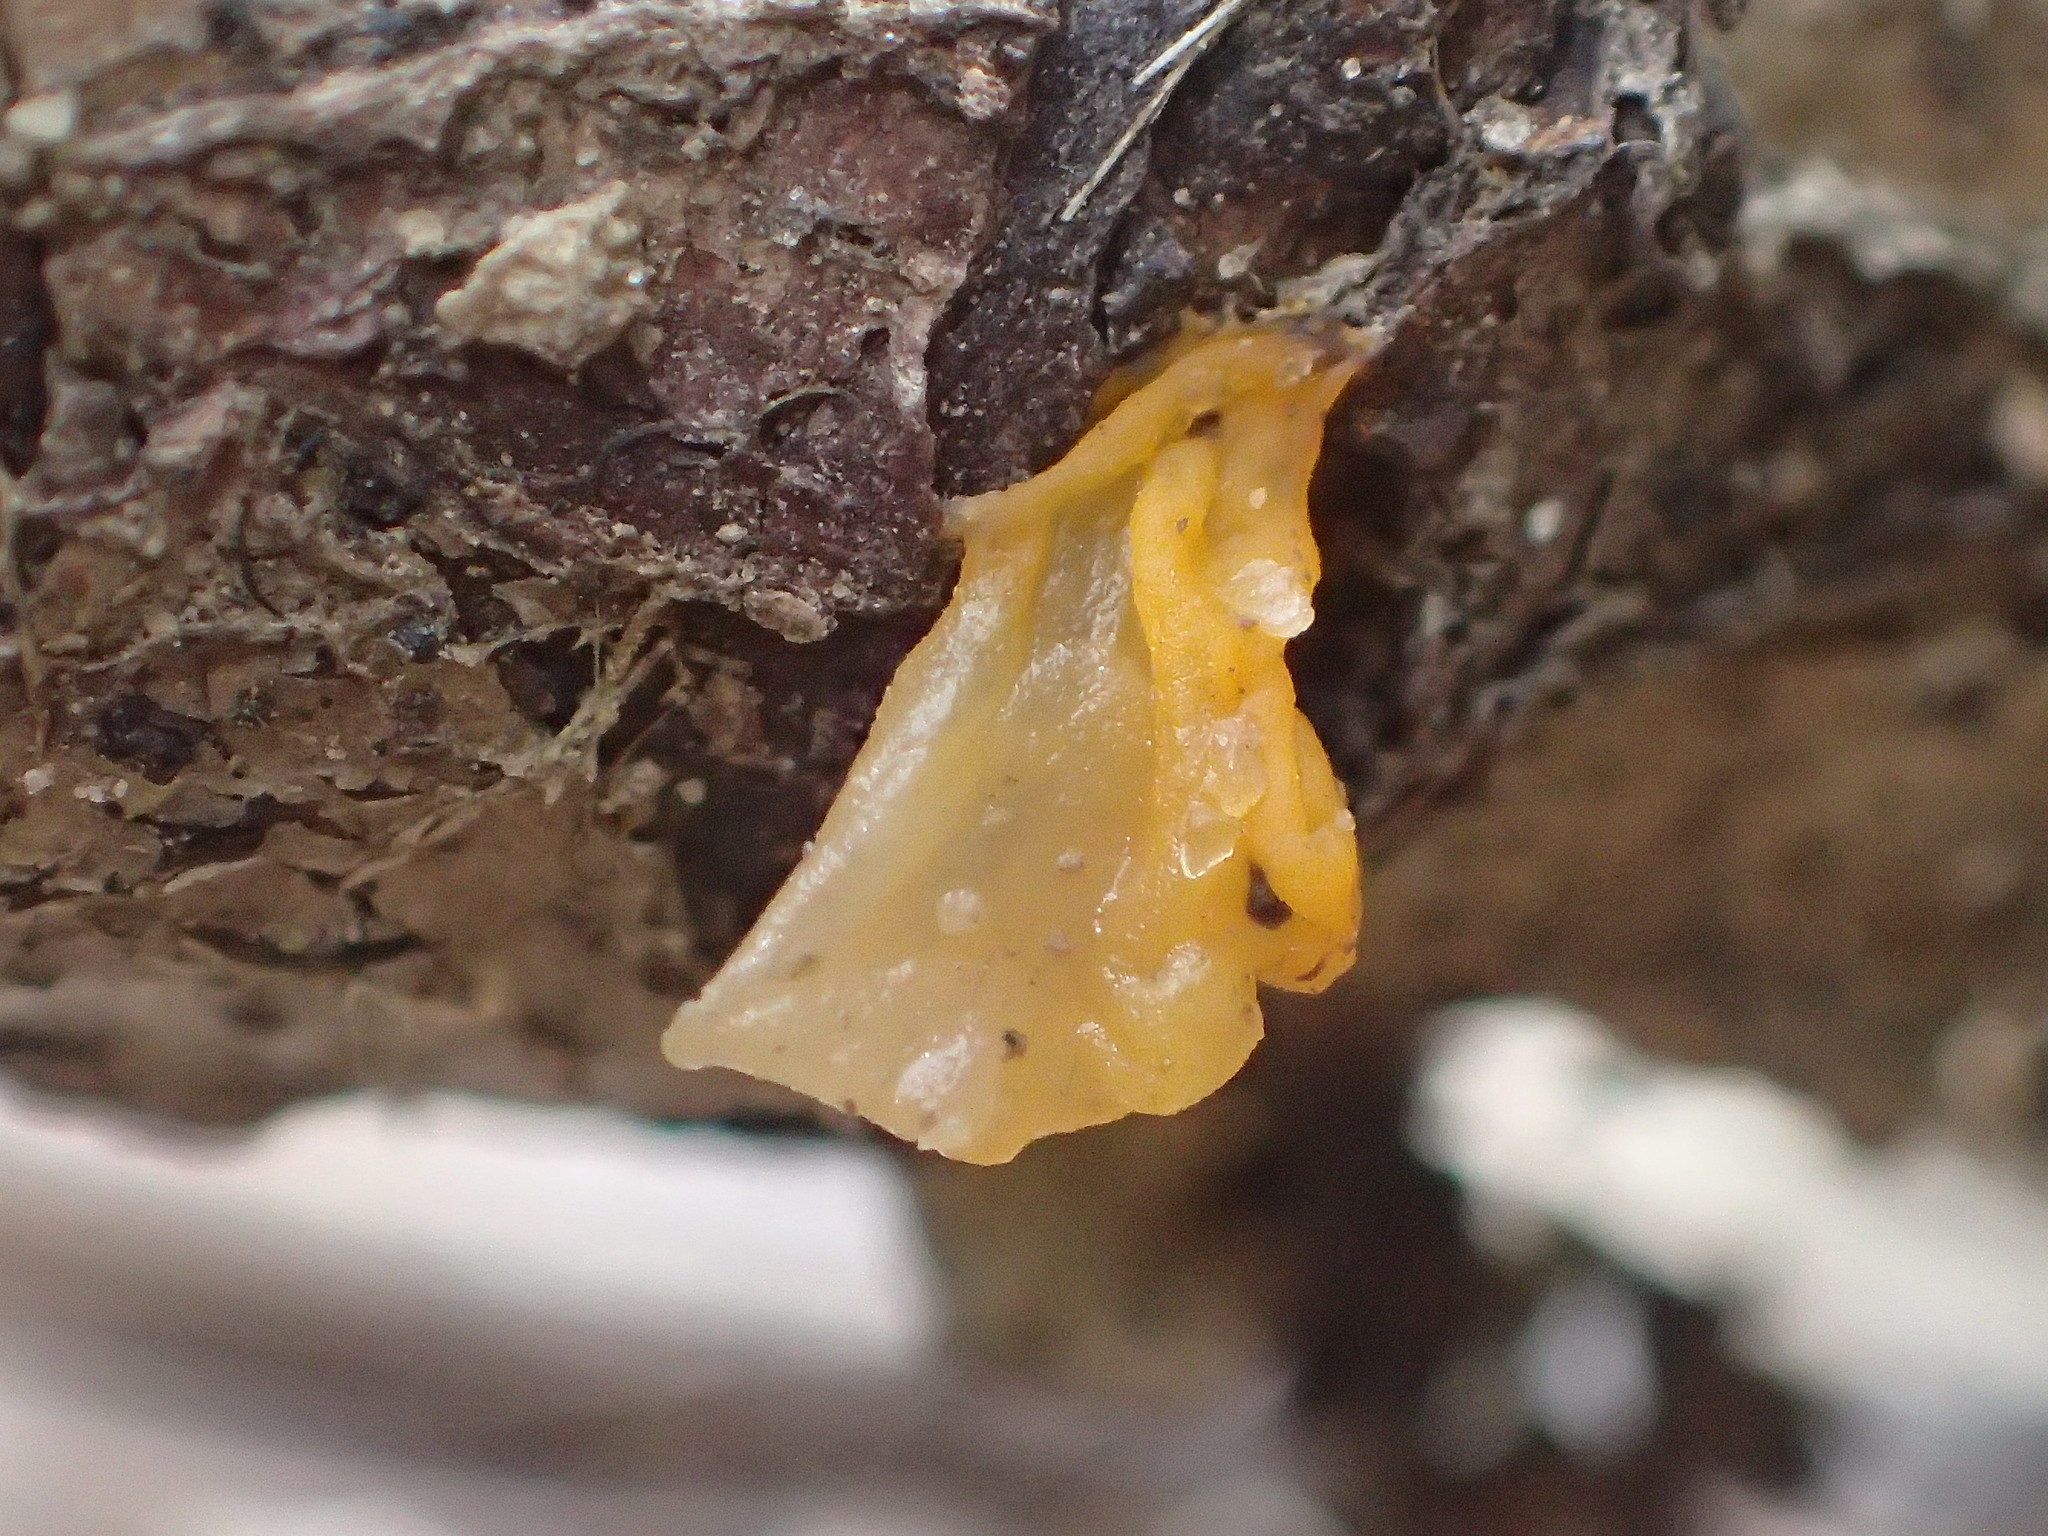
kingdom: Fungi
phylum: Basidiomycota
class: Tremellomycetes
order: Tremellales
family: Tremellaceae
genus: Tremella
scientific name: Tremella mesenterica
